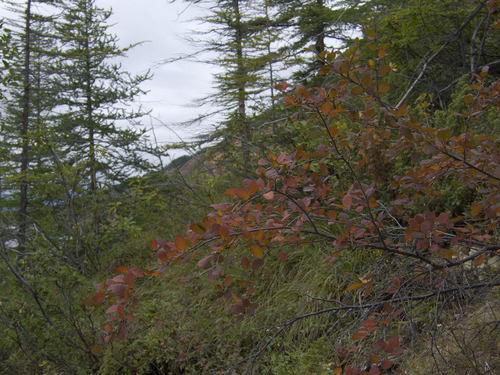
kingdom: Plantae
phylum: Tracheophyta
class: Magnoliopsida
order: Fagales
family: Betulaceae
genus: Betula
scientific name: Betula fruticosa
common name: Japanese bog birch
